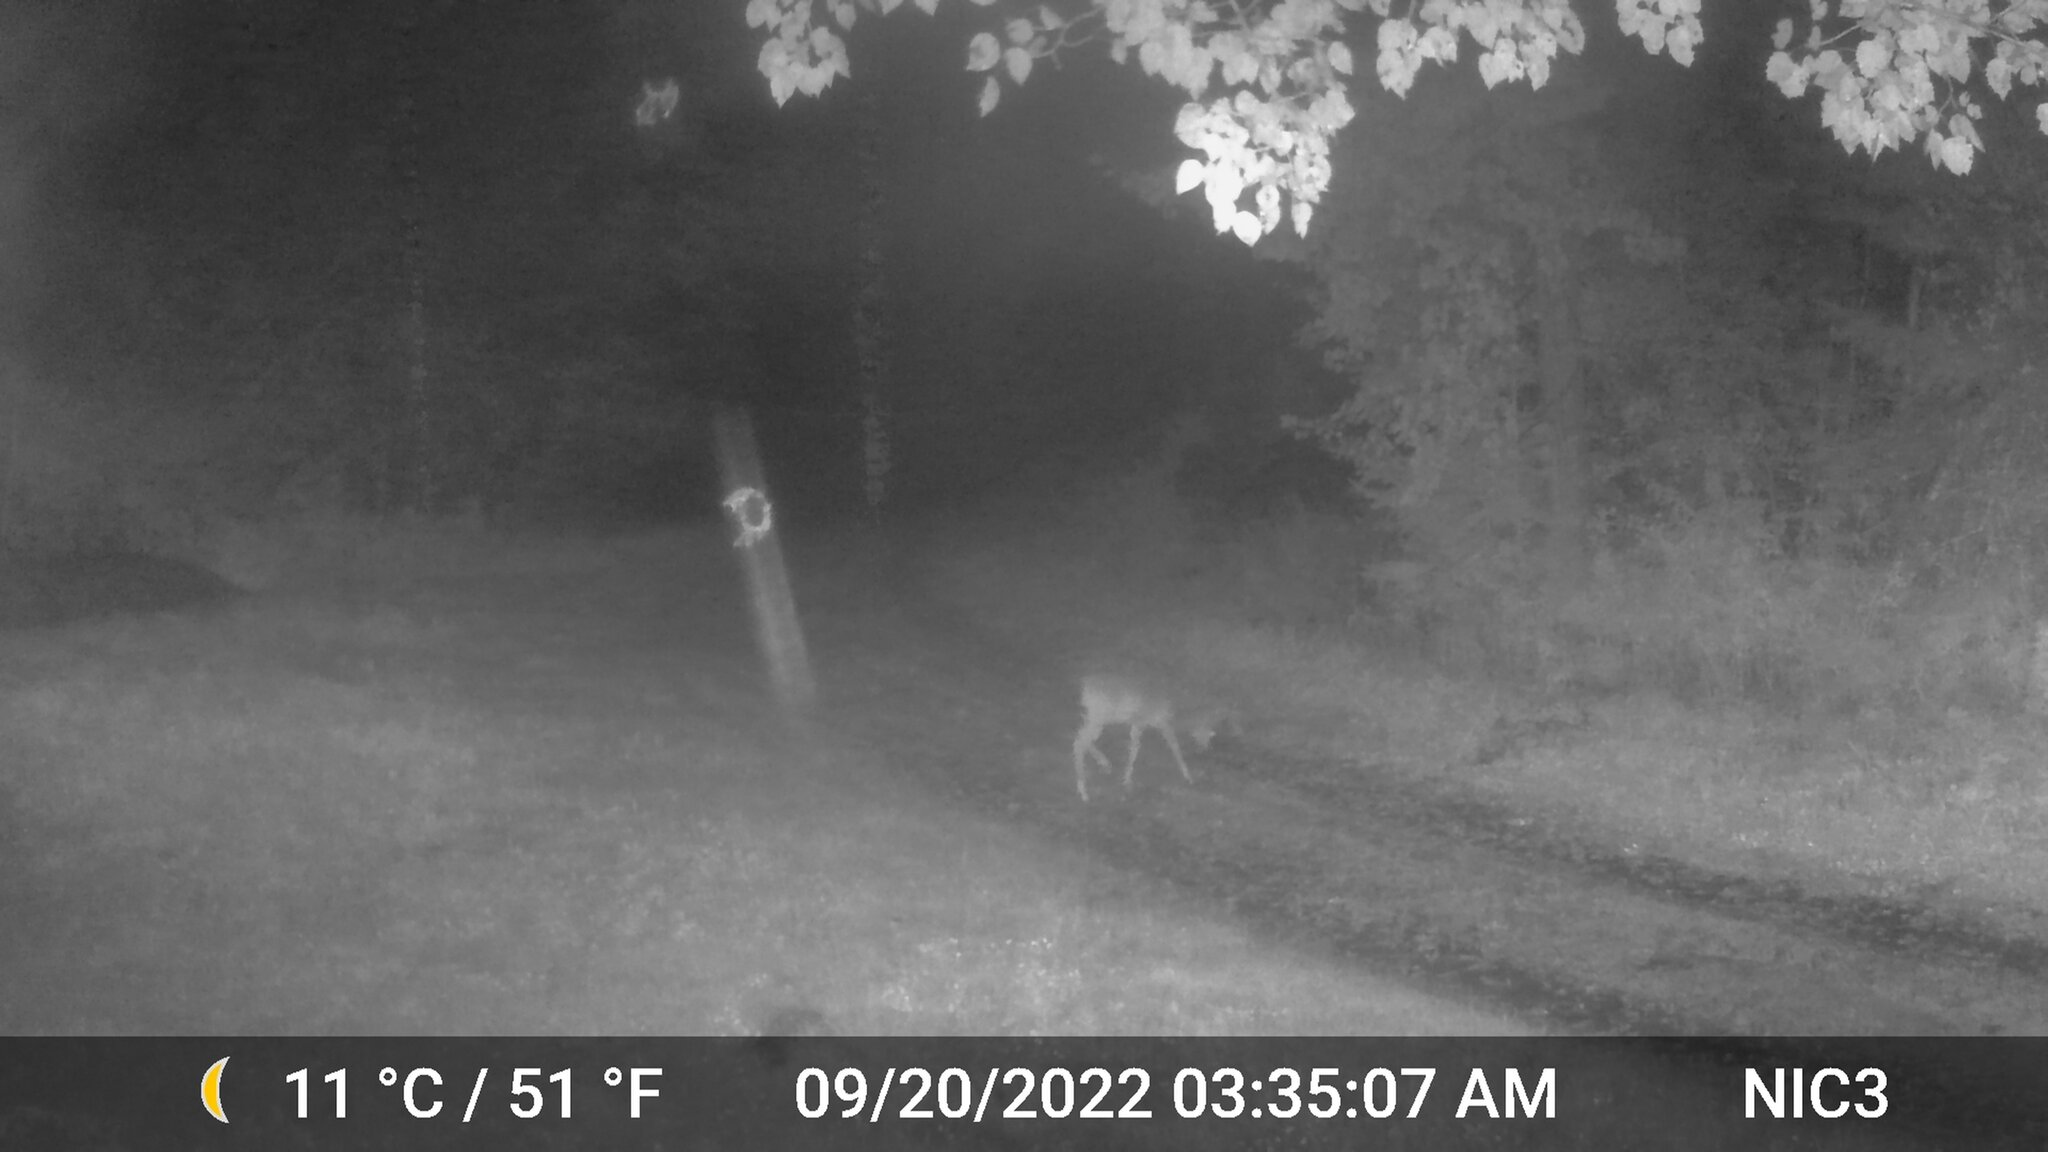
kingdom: Animalia
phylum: Chordata
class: Mammalia
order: Artiodactyla
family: Cervidae
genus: Odocoileus
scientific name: Odocoileus virginianus
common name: White-tailed deer
